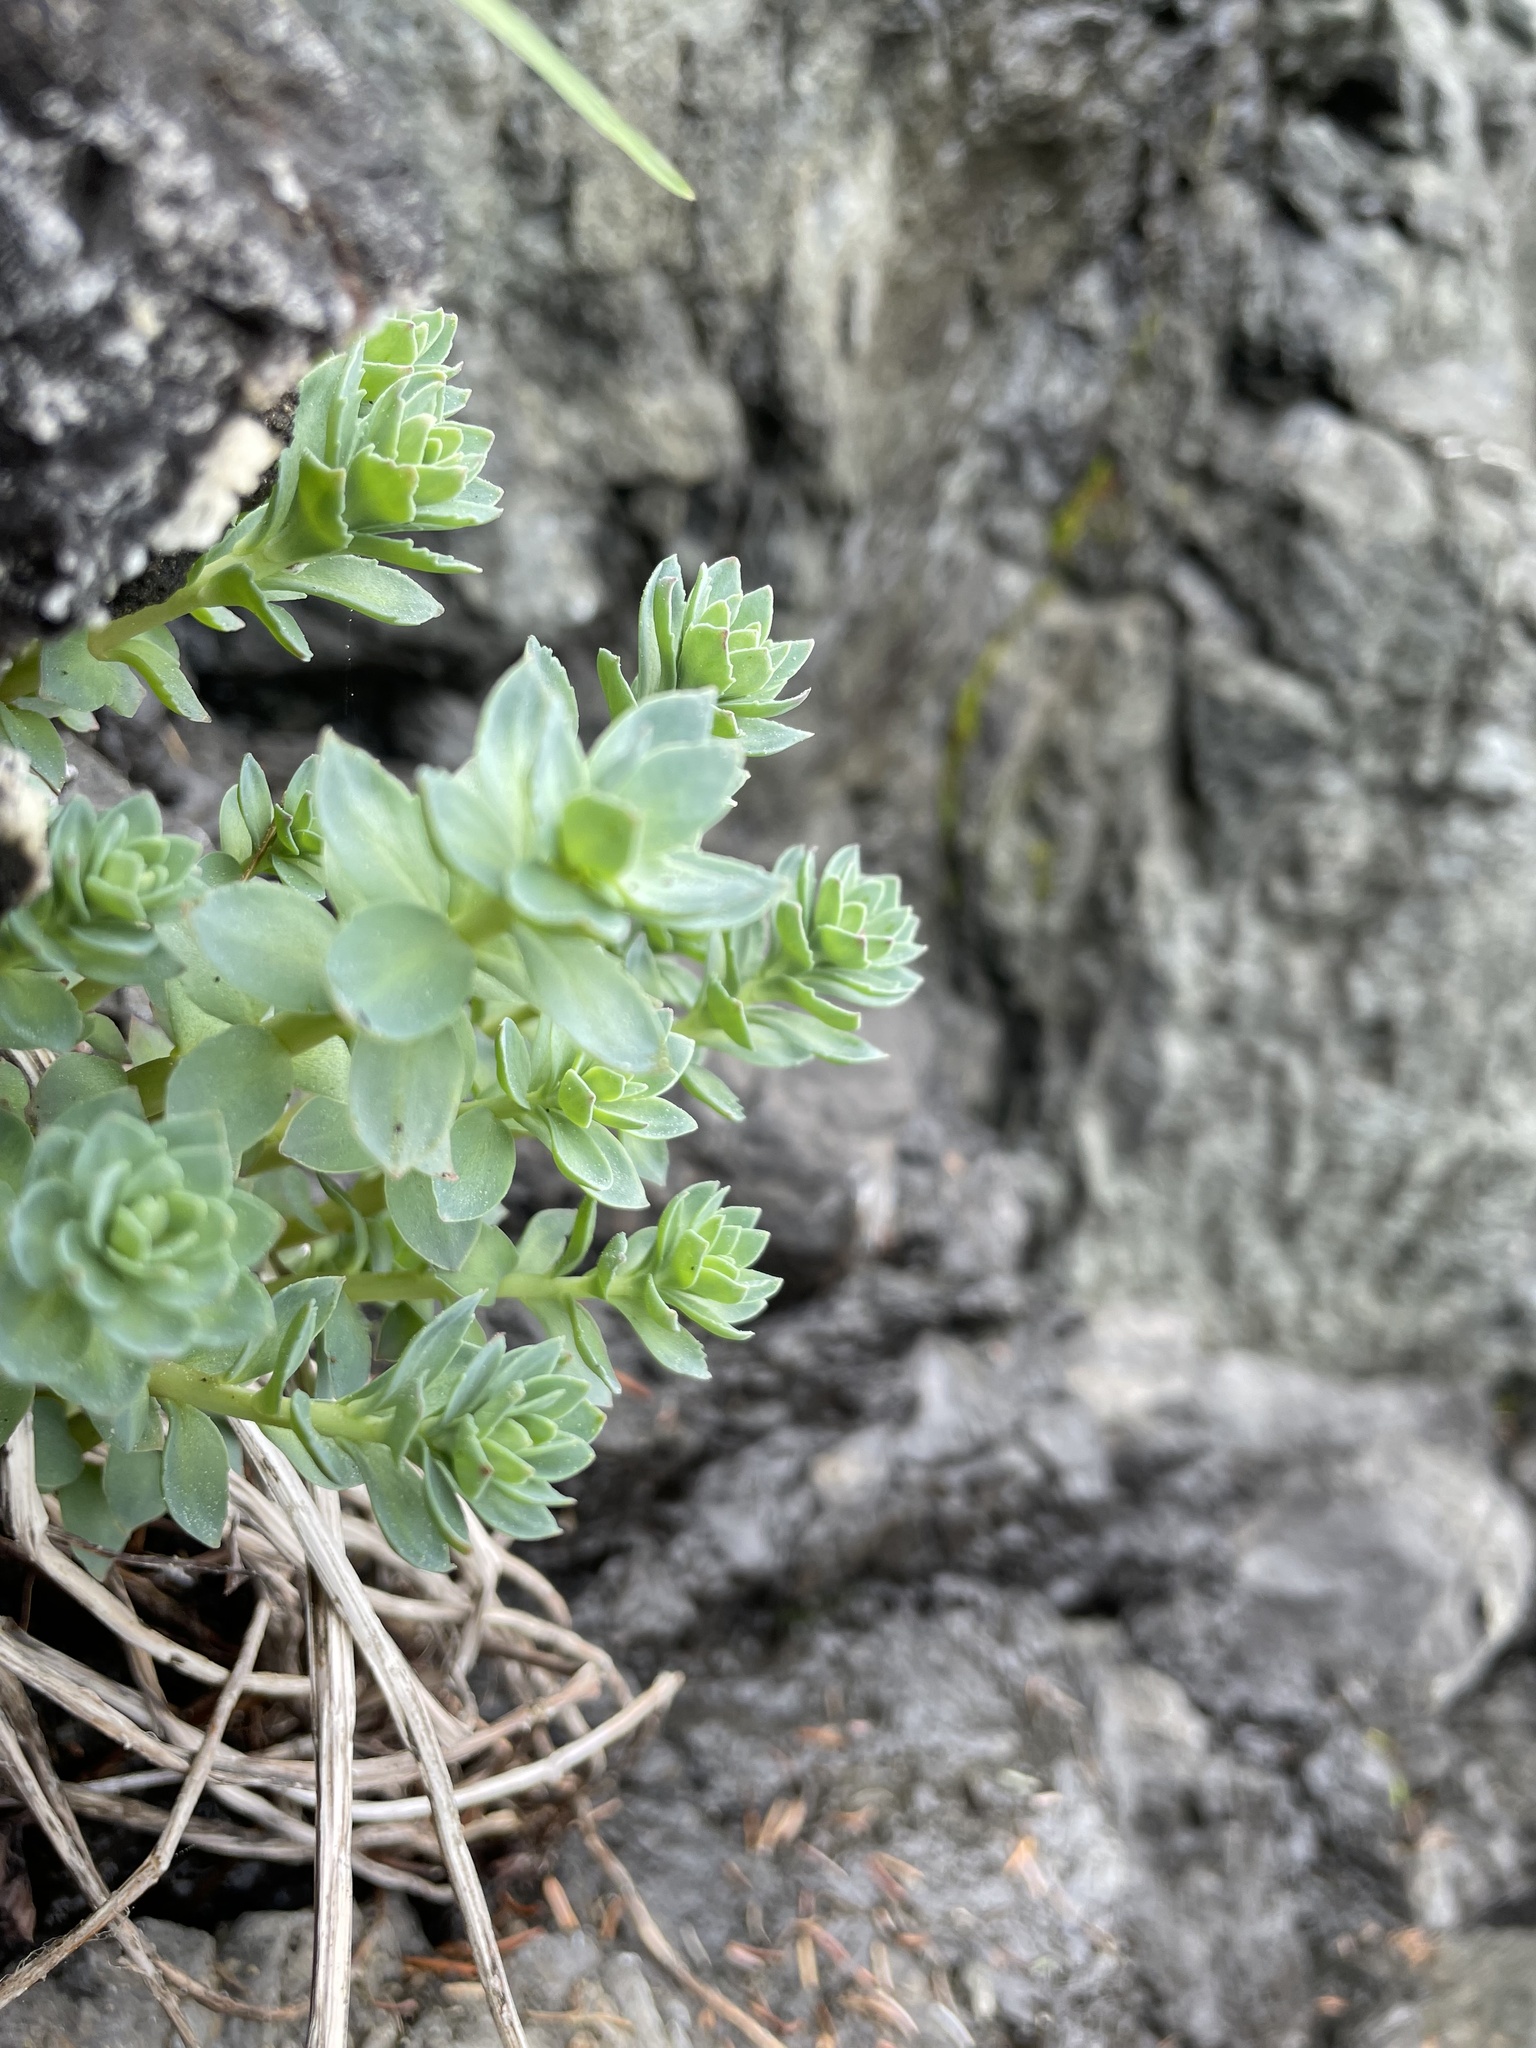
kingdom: Plantae
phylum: Tracheophyta
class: Magnoliopsida
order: Saxifragales
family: Crassulaceae
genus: Rhodiola
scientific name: Rhodiola integrifolia
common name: Western roseroot
